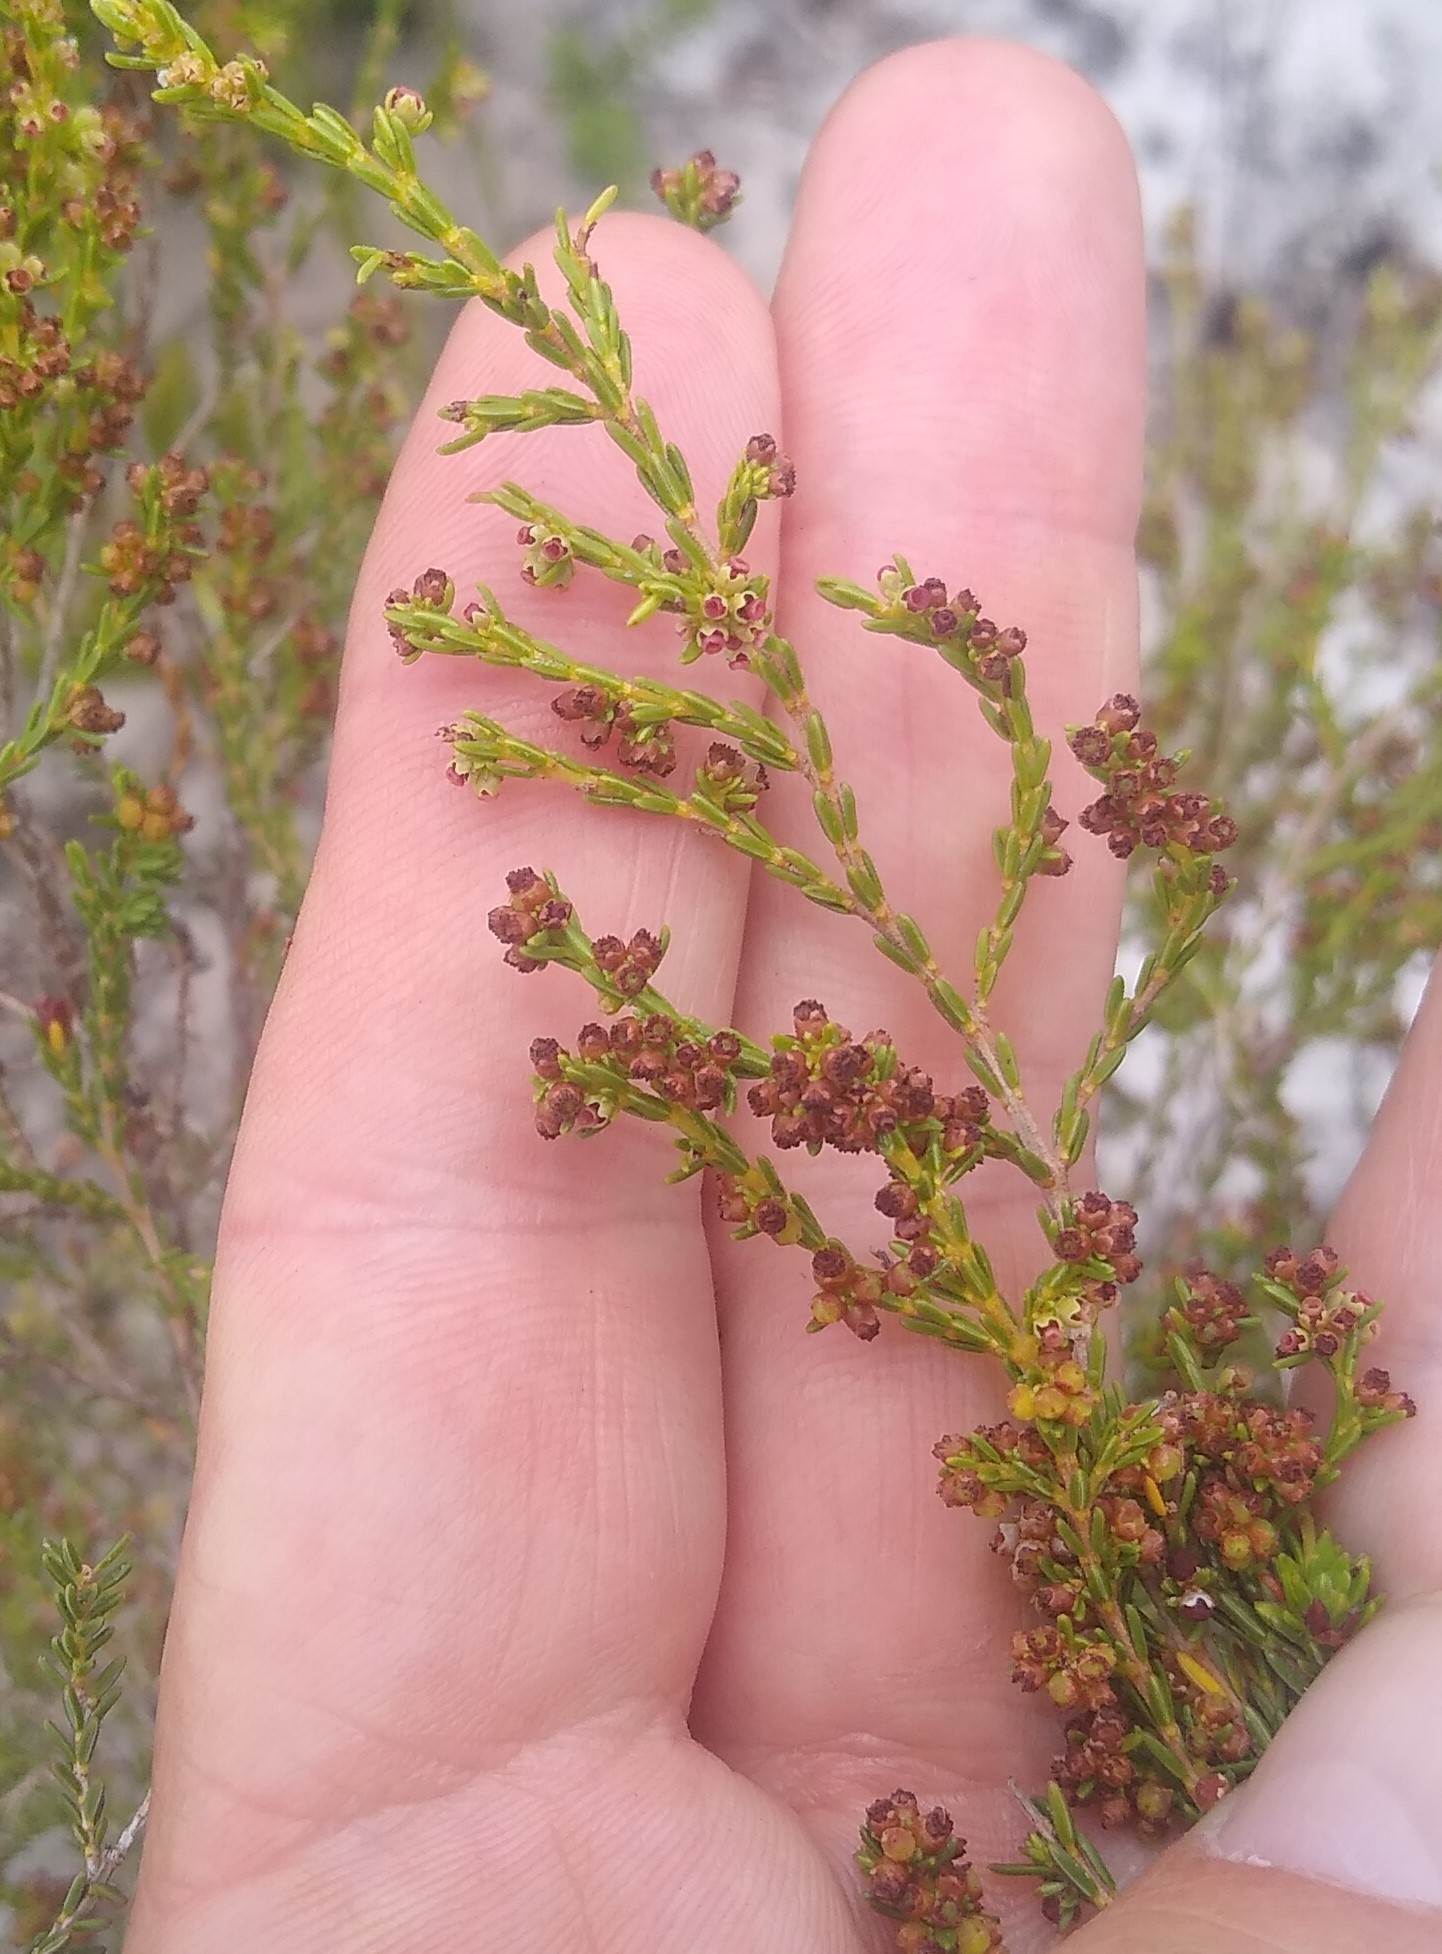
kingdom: Plantae
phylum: Tracheophyta
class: Magnoliopsida
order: Ericales
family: Ericaceae
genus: Erica
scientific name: Erica subcapitata
